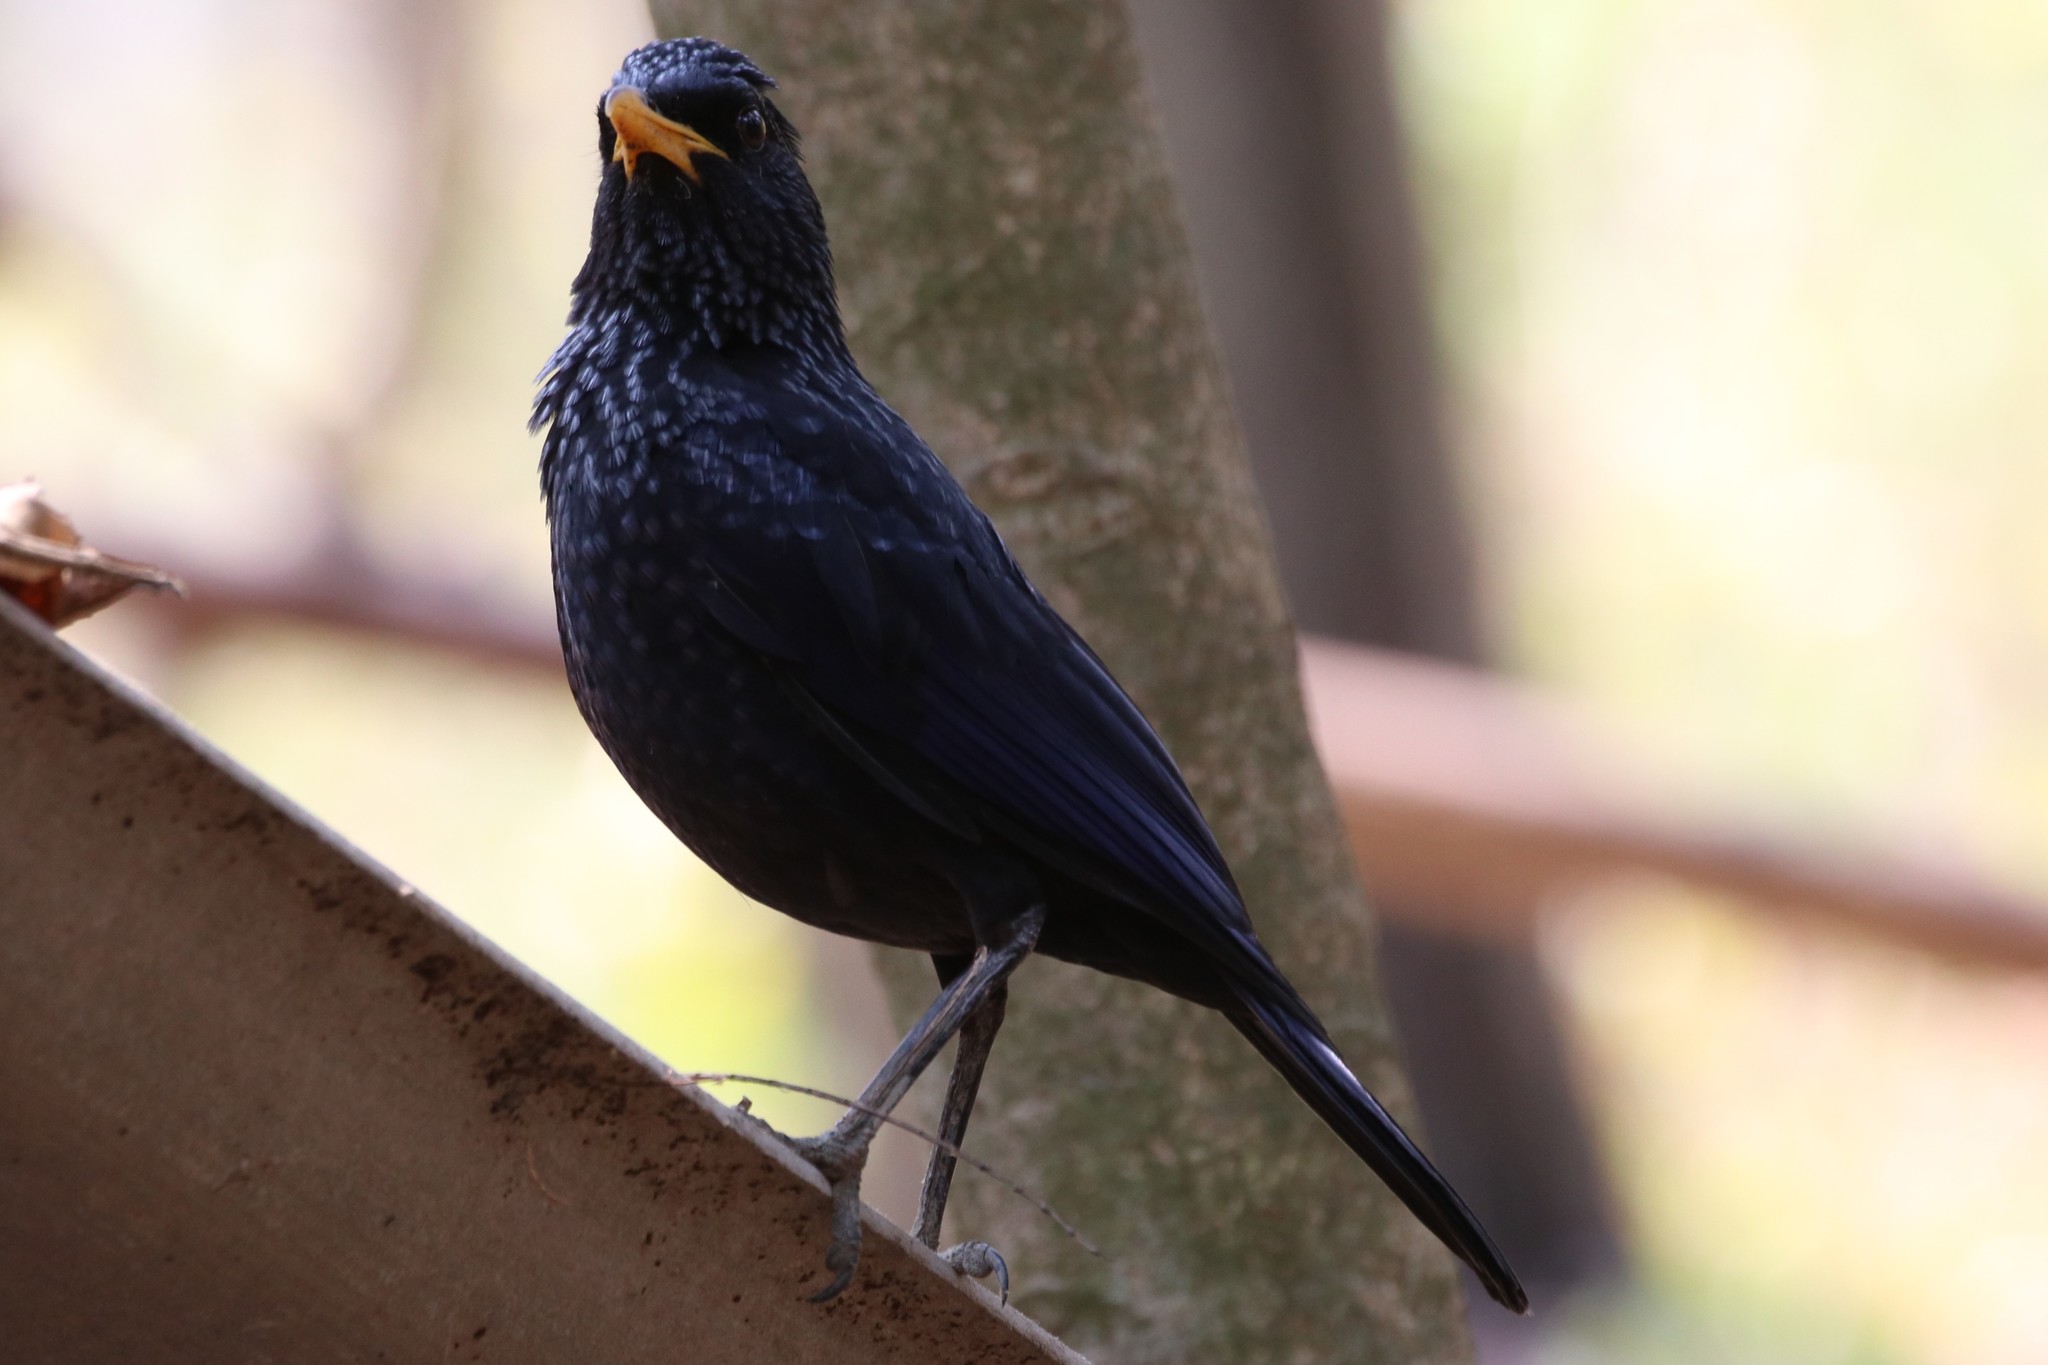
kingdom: Animalia
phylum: Chordata
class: Aves
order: Passeriformes
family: Muscicapidae
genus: Myophonus
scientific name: Myophonus caeruleus
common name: Blue whistling-thrush
